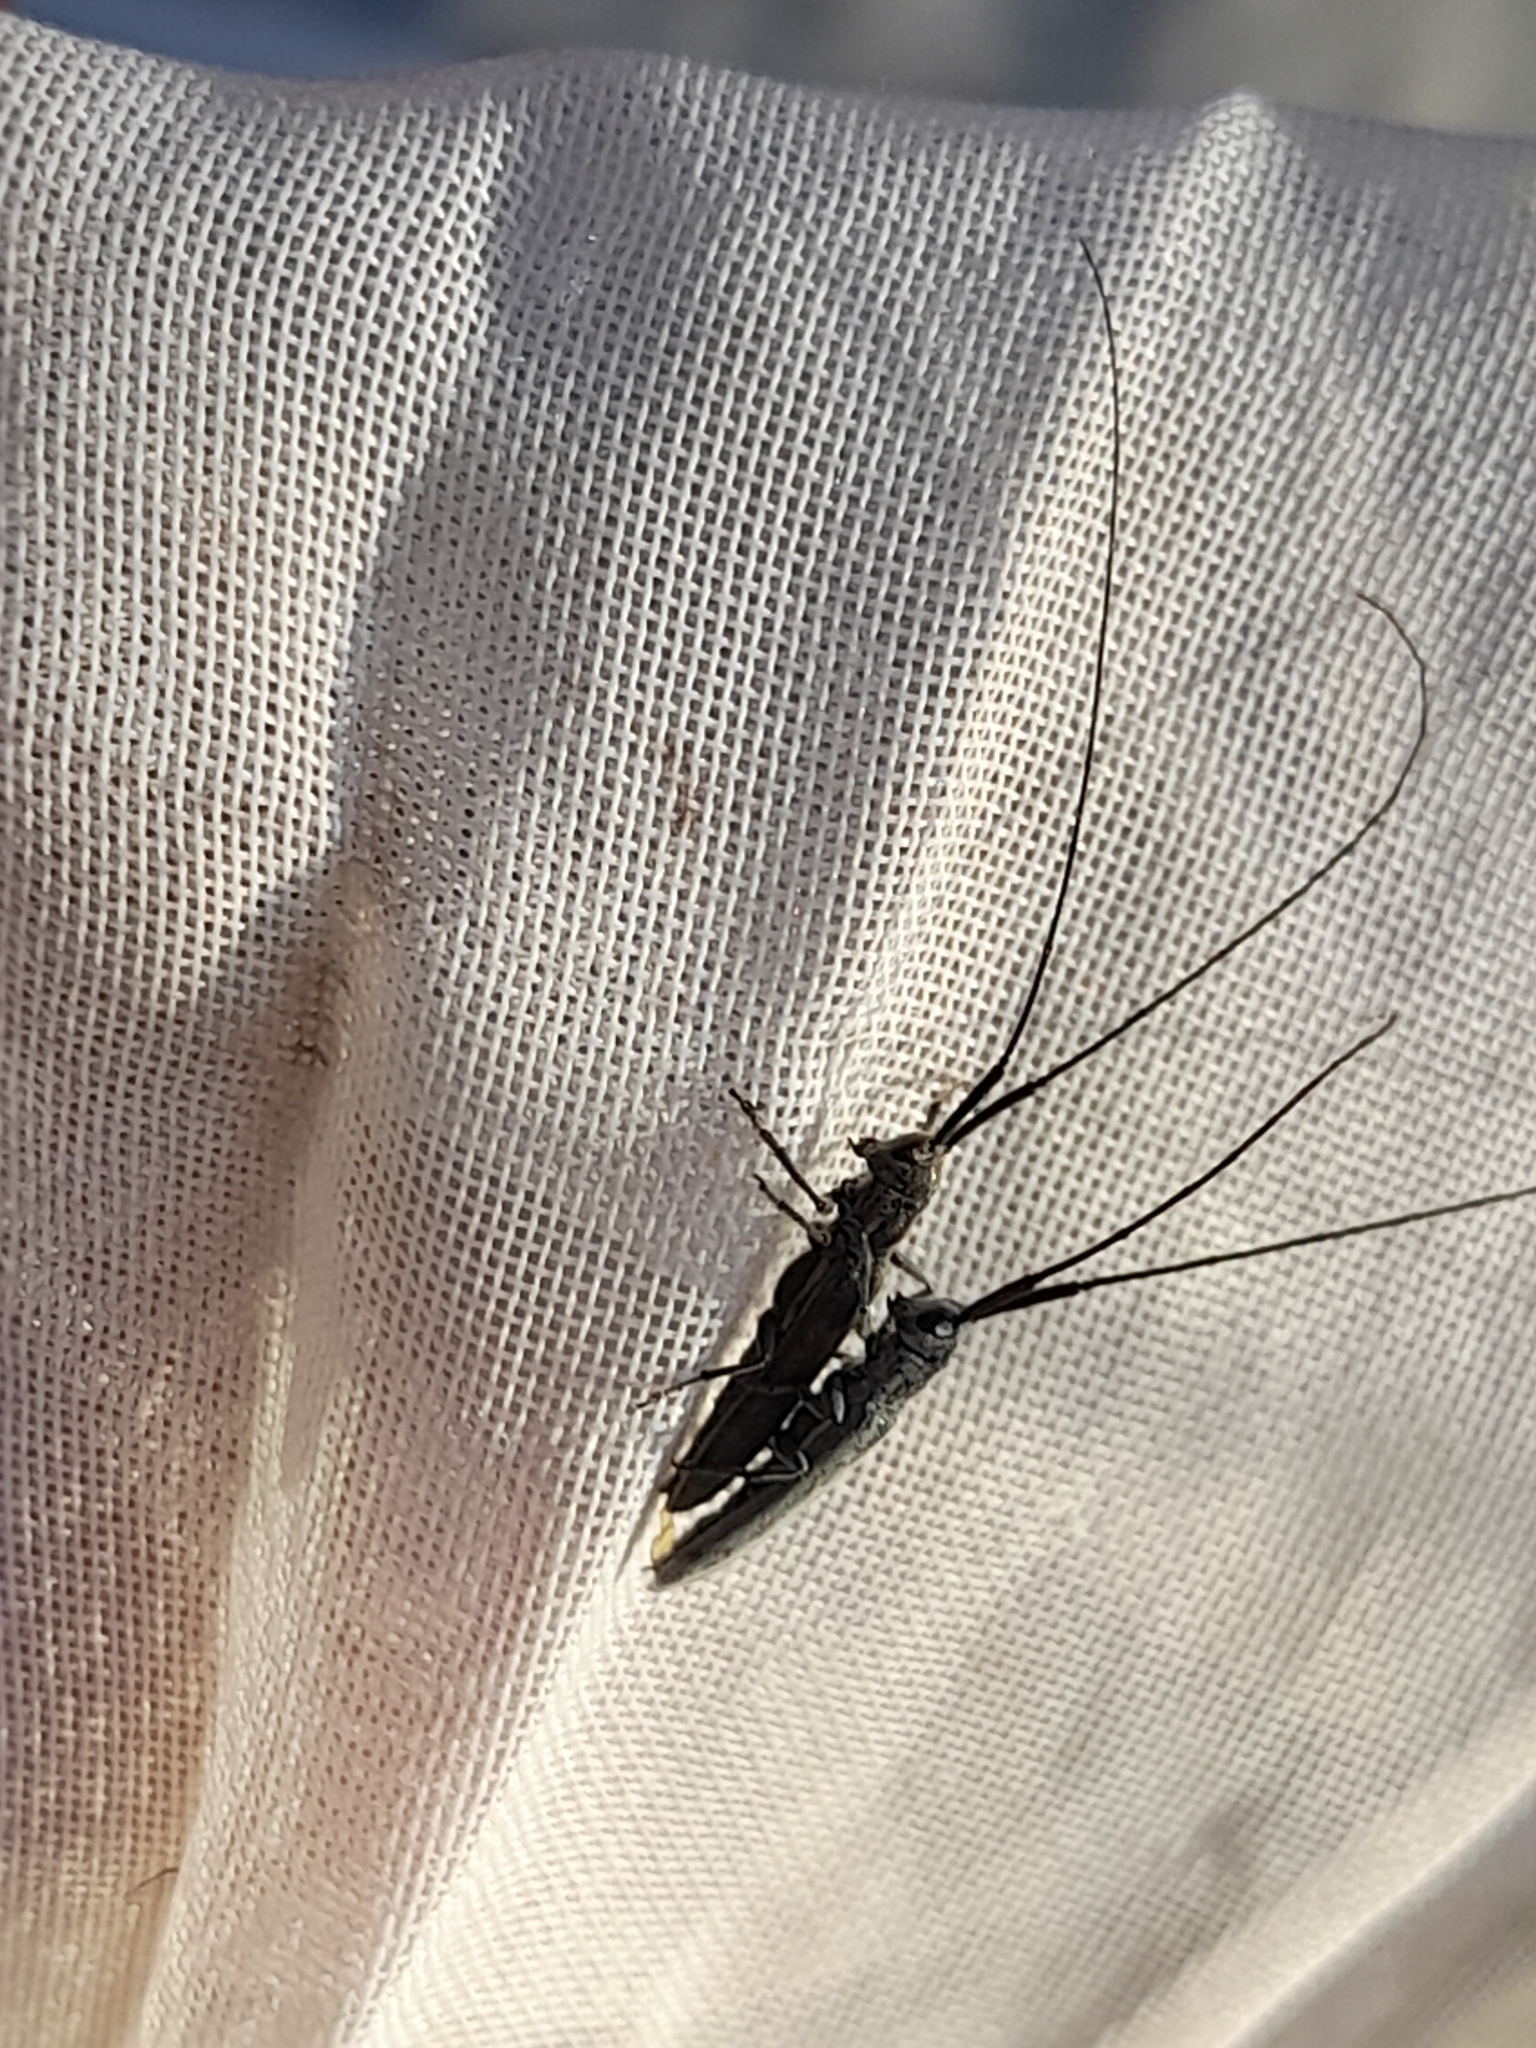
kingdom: Animalia
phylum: Arthropoda
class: Insecta
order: Coleoptera
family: Cerambycidae
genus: Calamobius
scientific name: Calamobius filum
